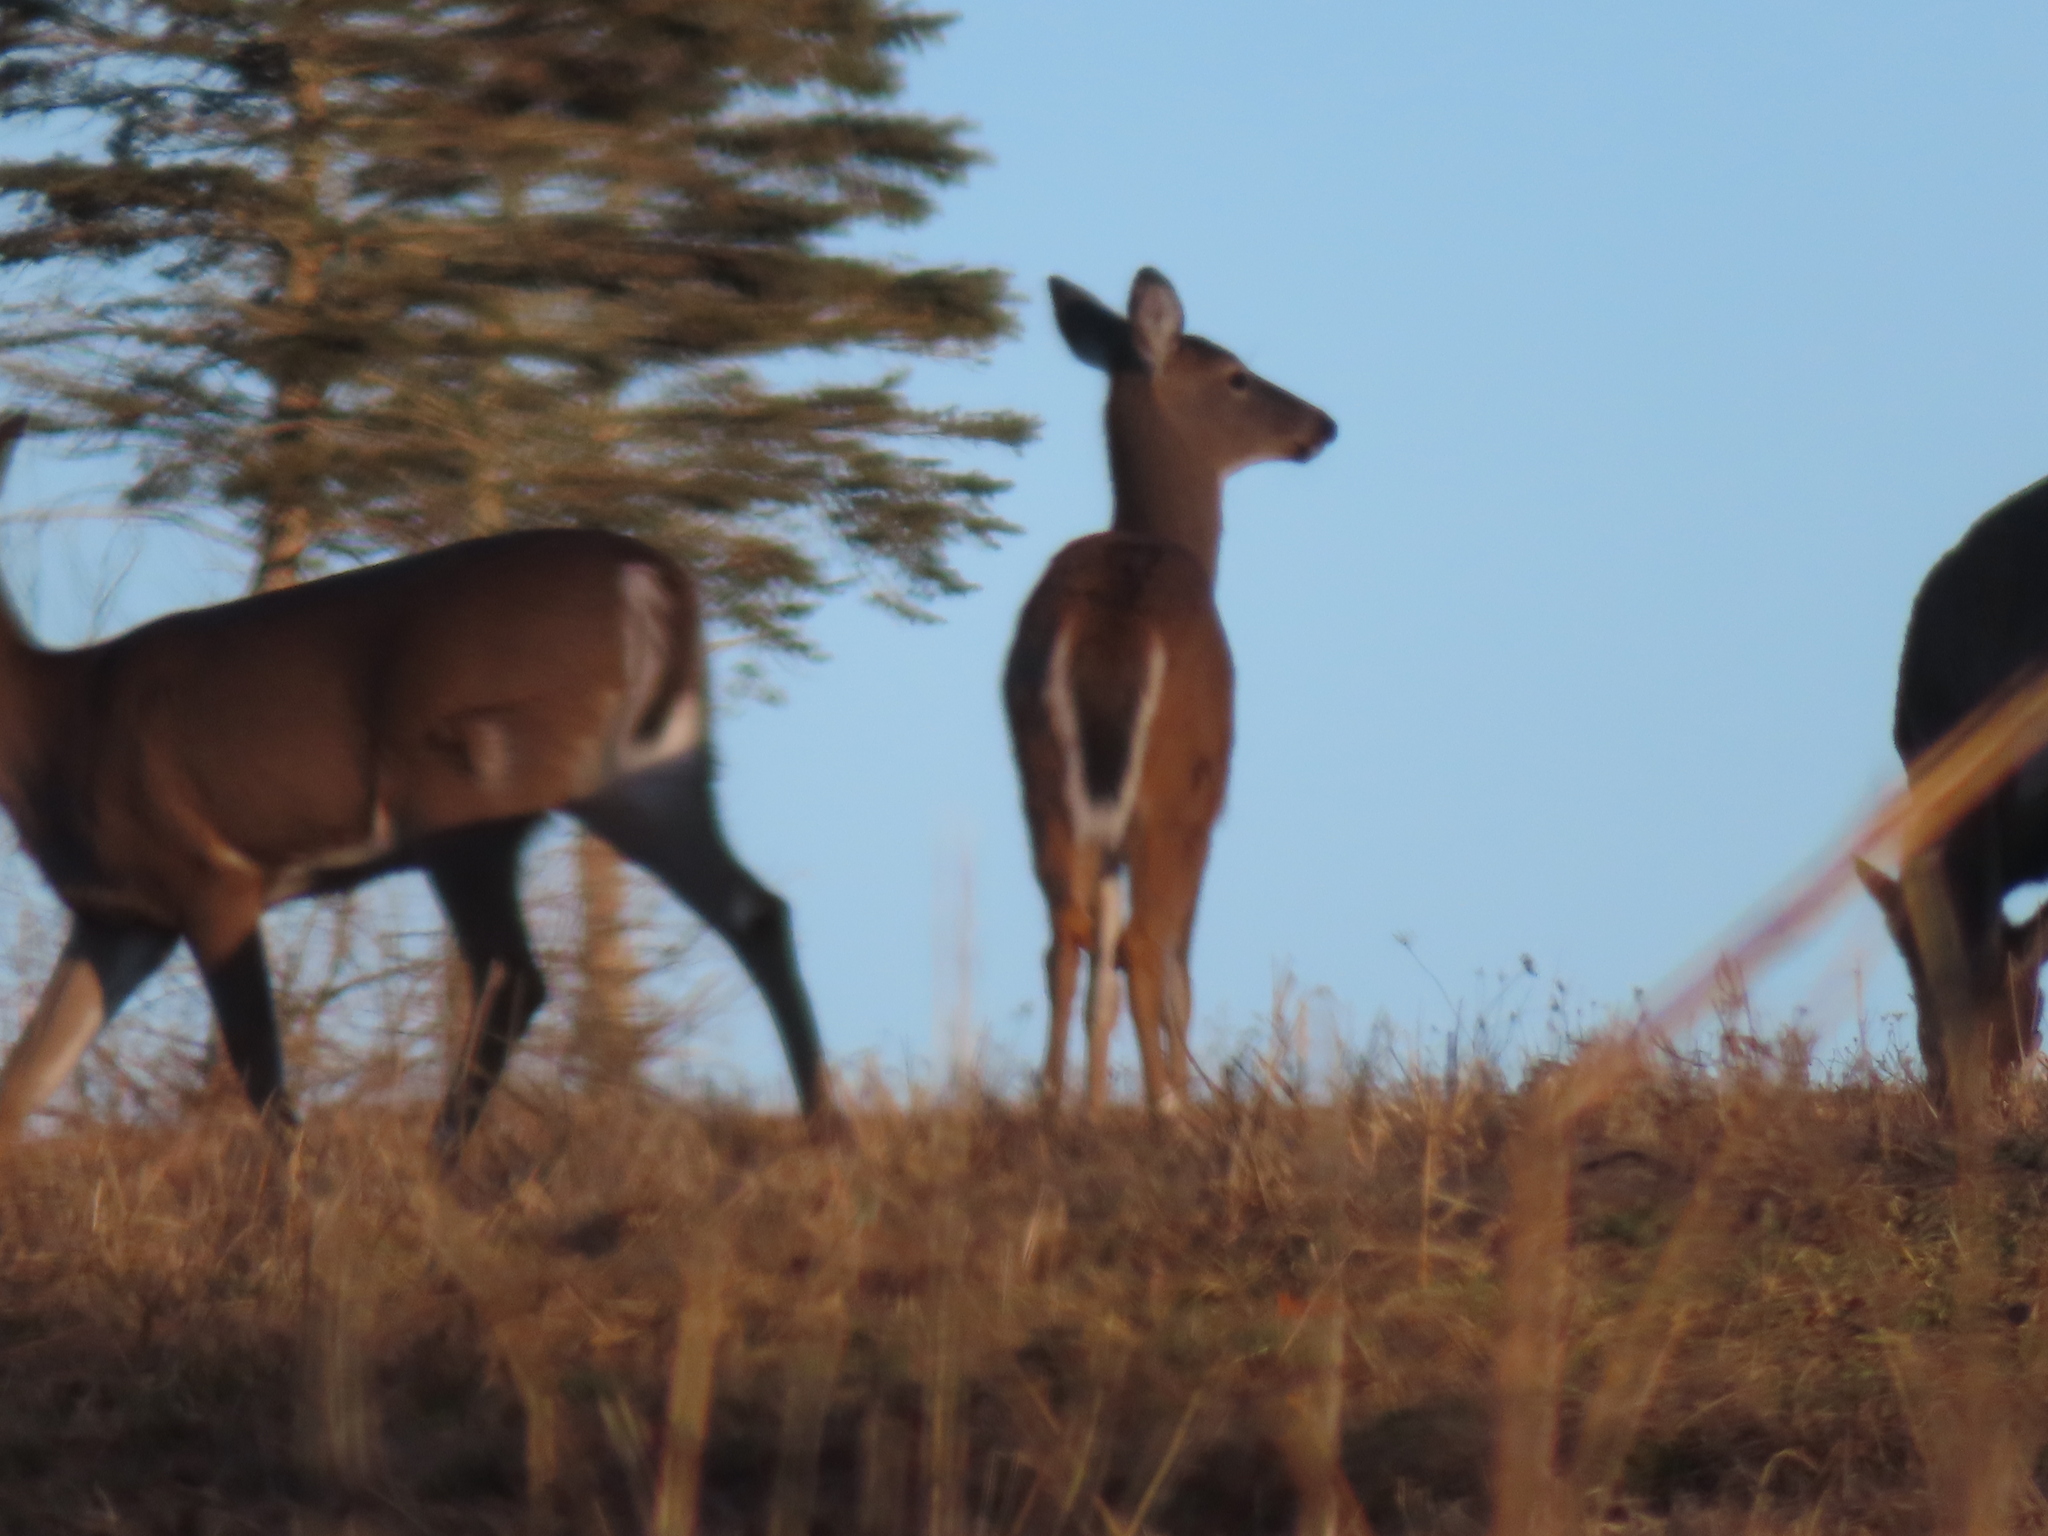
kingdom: Animalia
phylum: Chordata
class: Mammalia
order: Artiodactyla
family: Cervidae
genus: Odocoileus
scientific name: Odocoileus virginianus
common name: White-tailed deer
